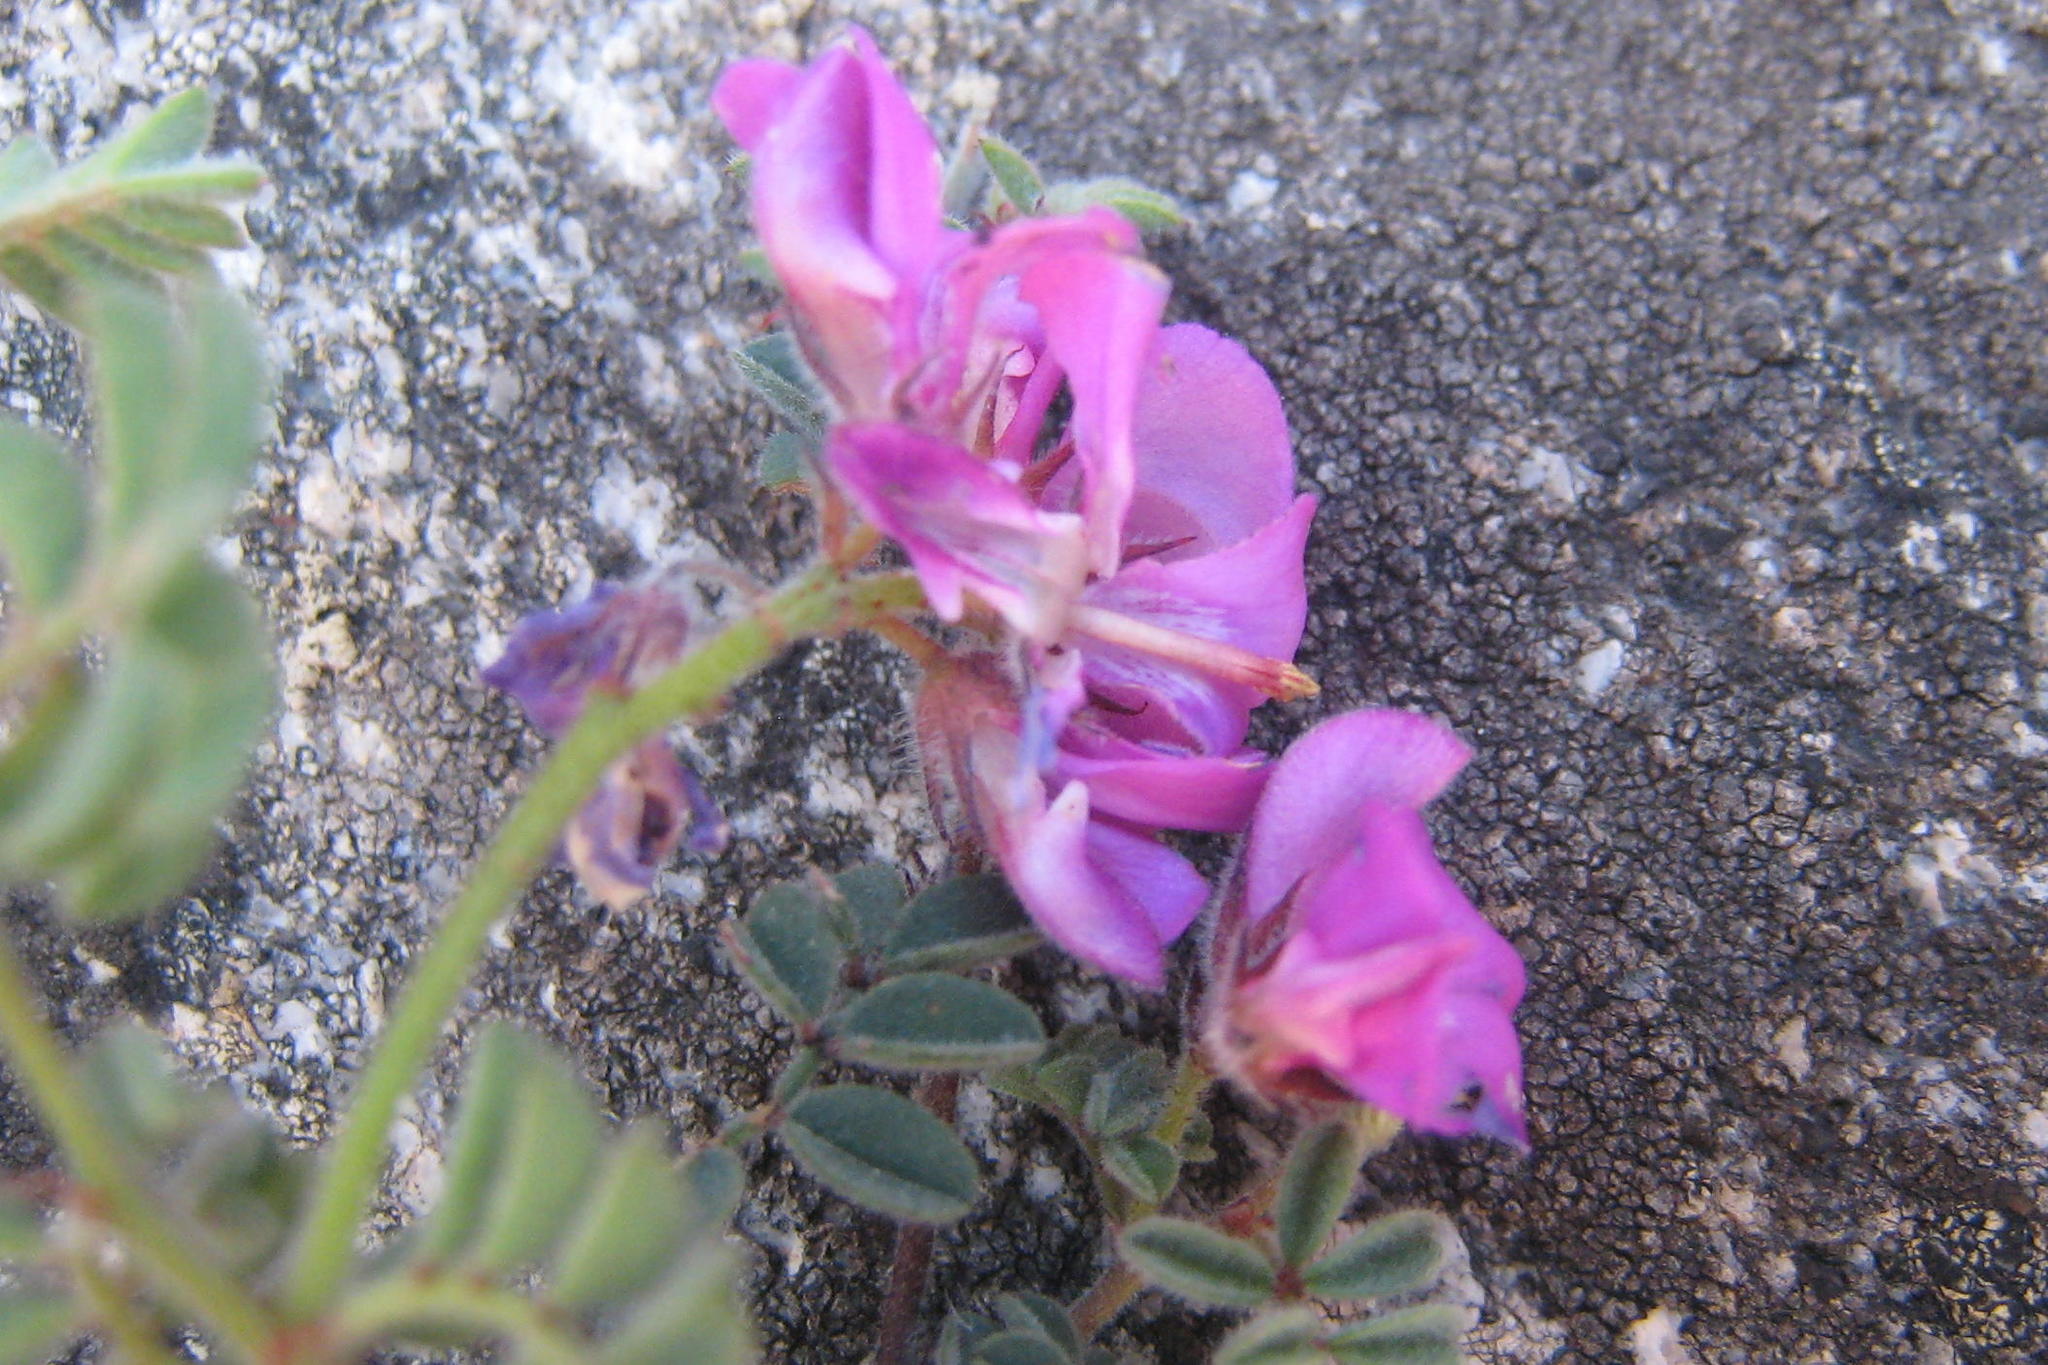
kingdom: Plantae
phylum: Tracheophyta
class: Magnoliopsida
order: Fabales
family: Fabaceae
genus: Indigofera
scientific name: Indigofera declinata
